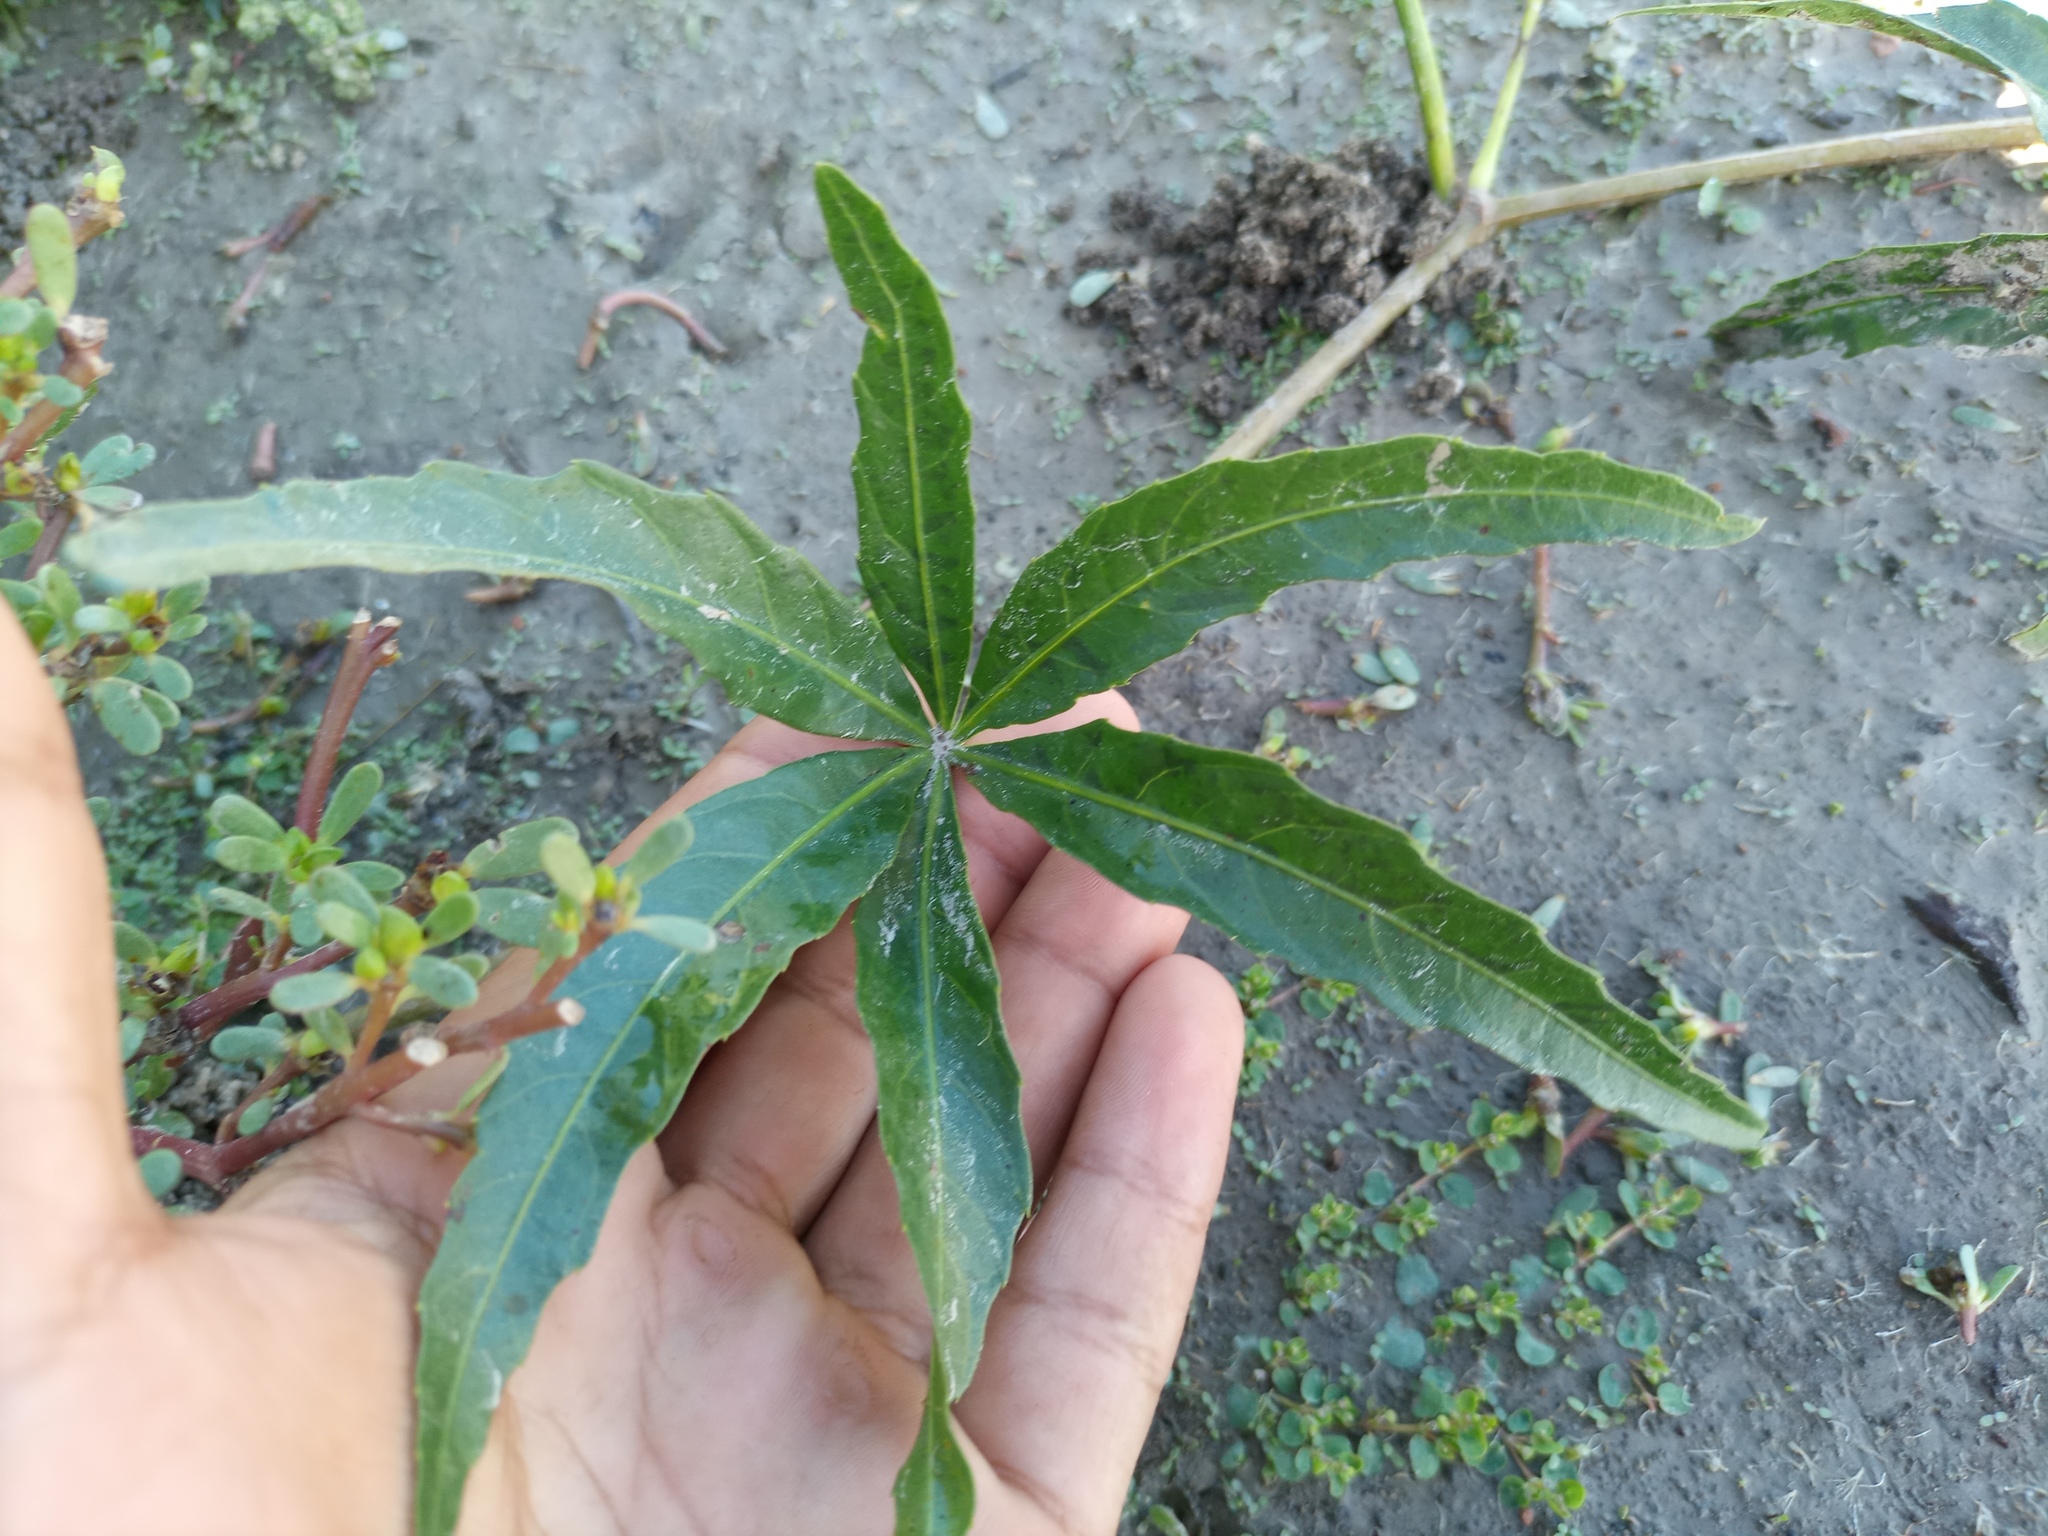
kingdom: Plantae
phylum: Tracheophyta
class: Magnoliopsida
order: Vitales
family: Vitaceae
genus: Cissus
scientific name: Cissus palmata
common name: Grape
